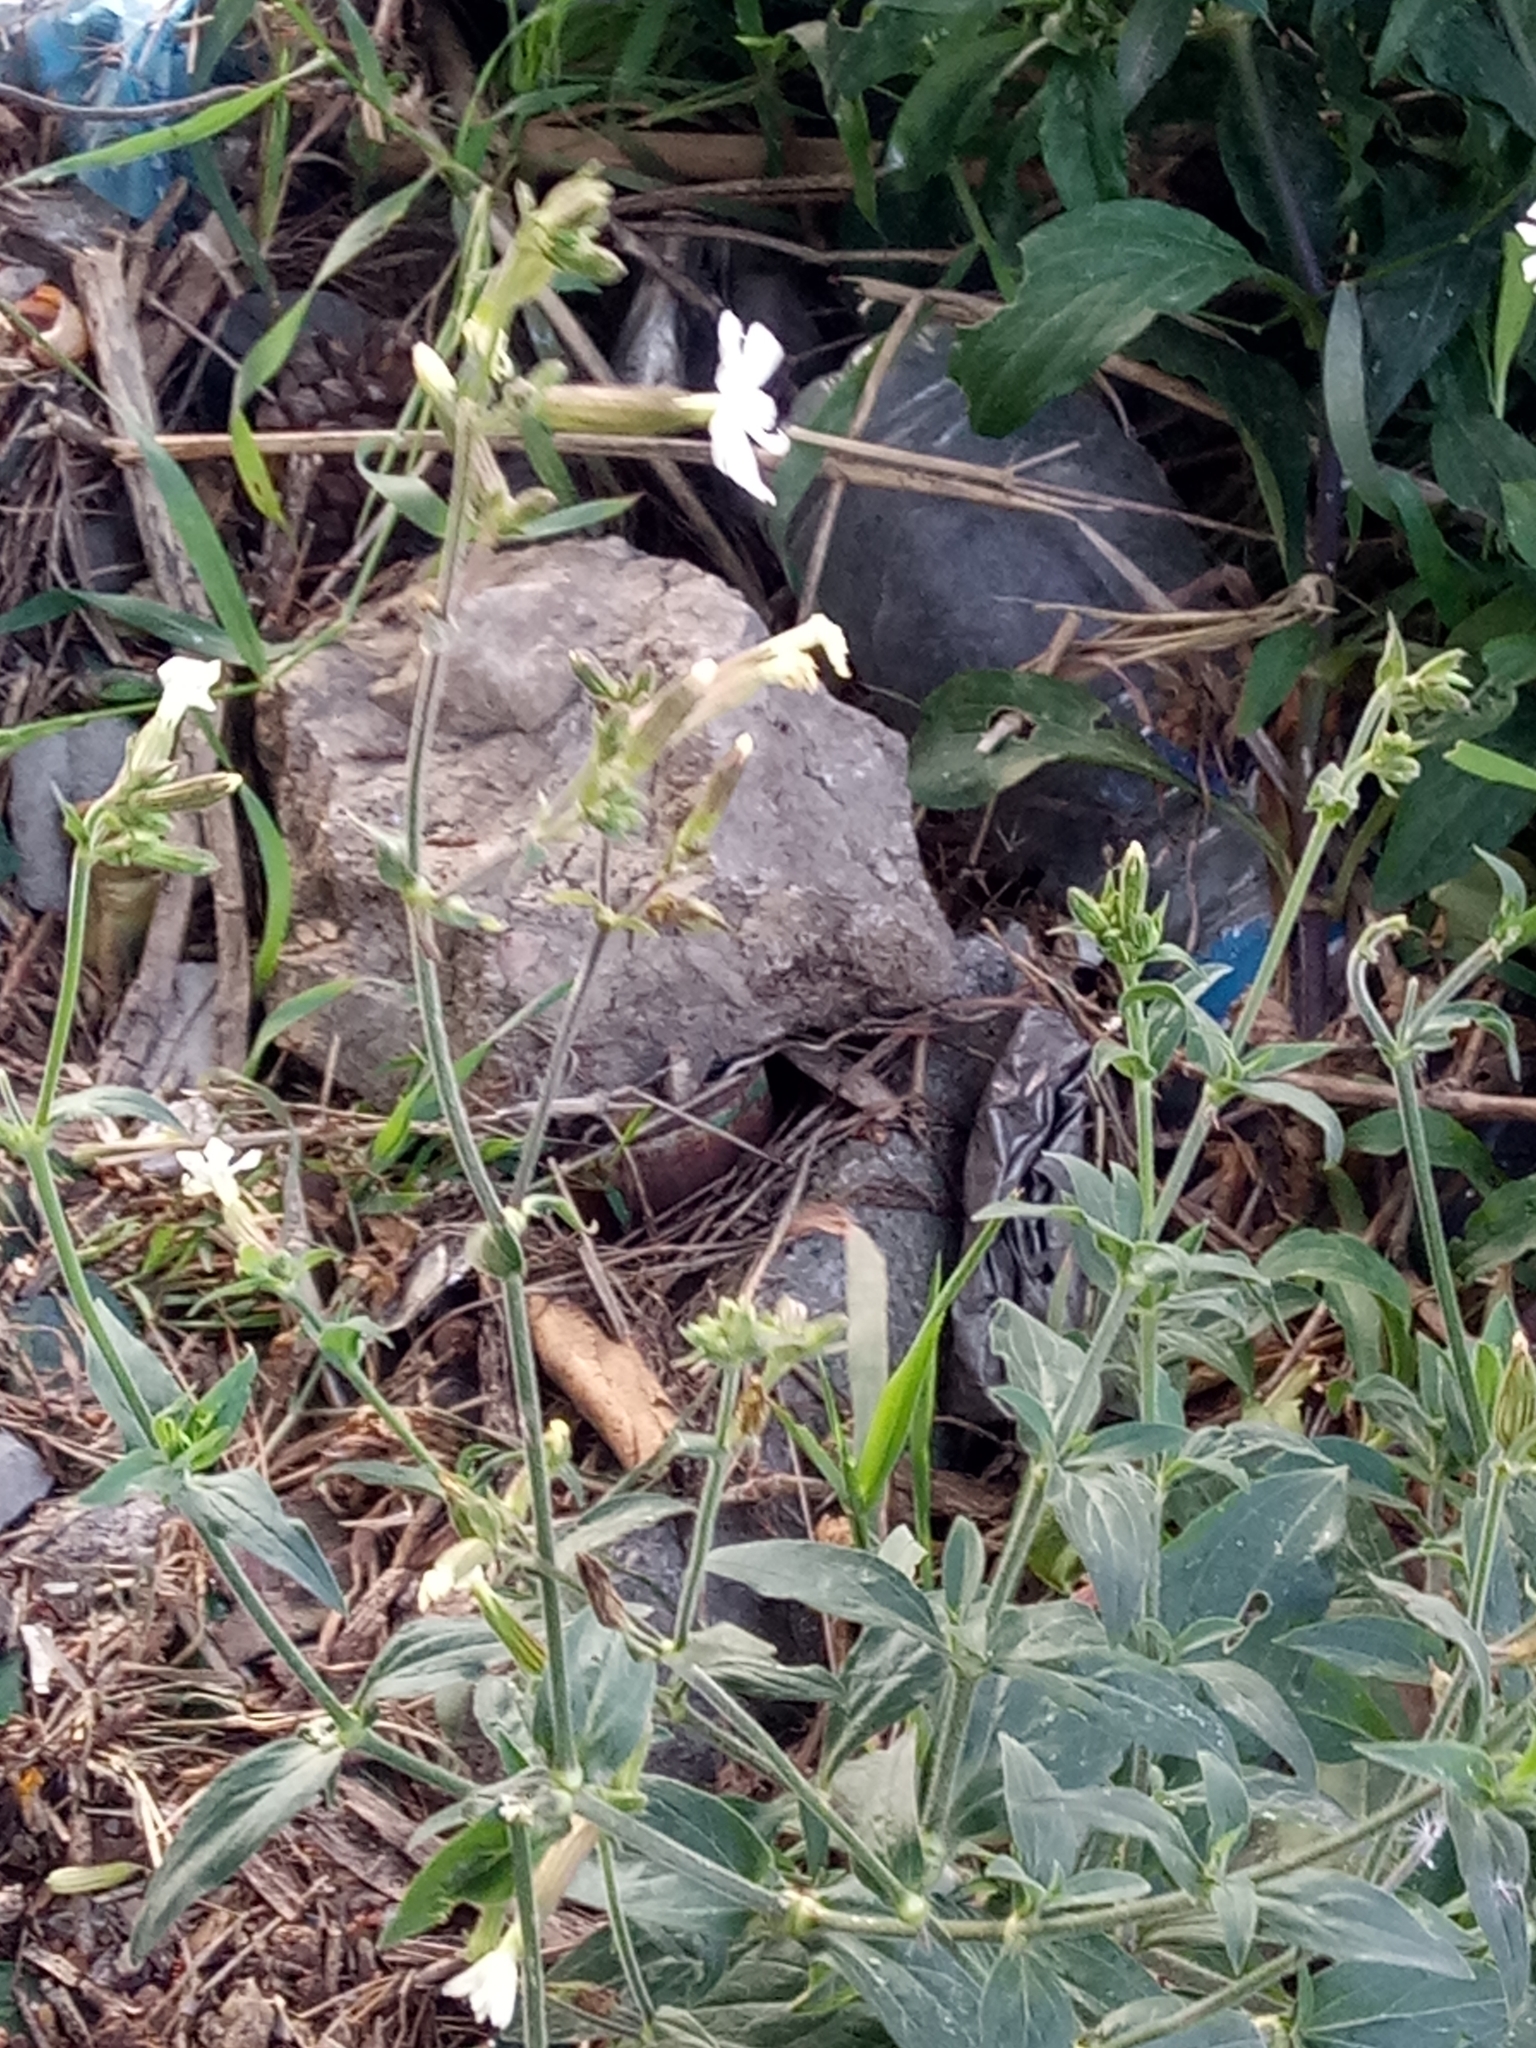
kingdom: Plantae
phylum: Tracheophyta
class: Magnoliopsida
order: Caryophyllales
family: Caryophyllaceae
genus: Silene
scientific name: Silene latifolia
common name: White campion
